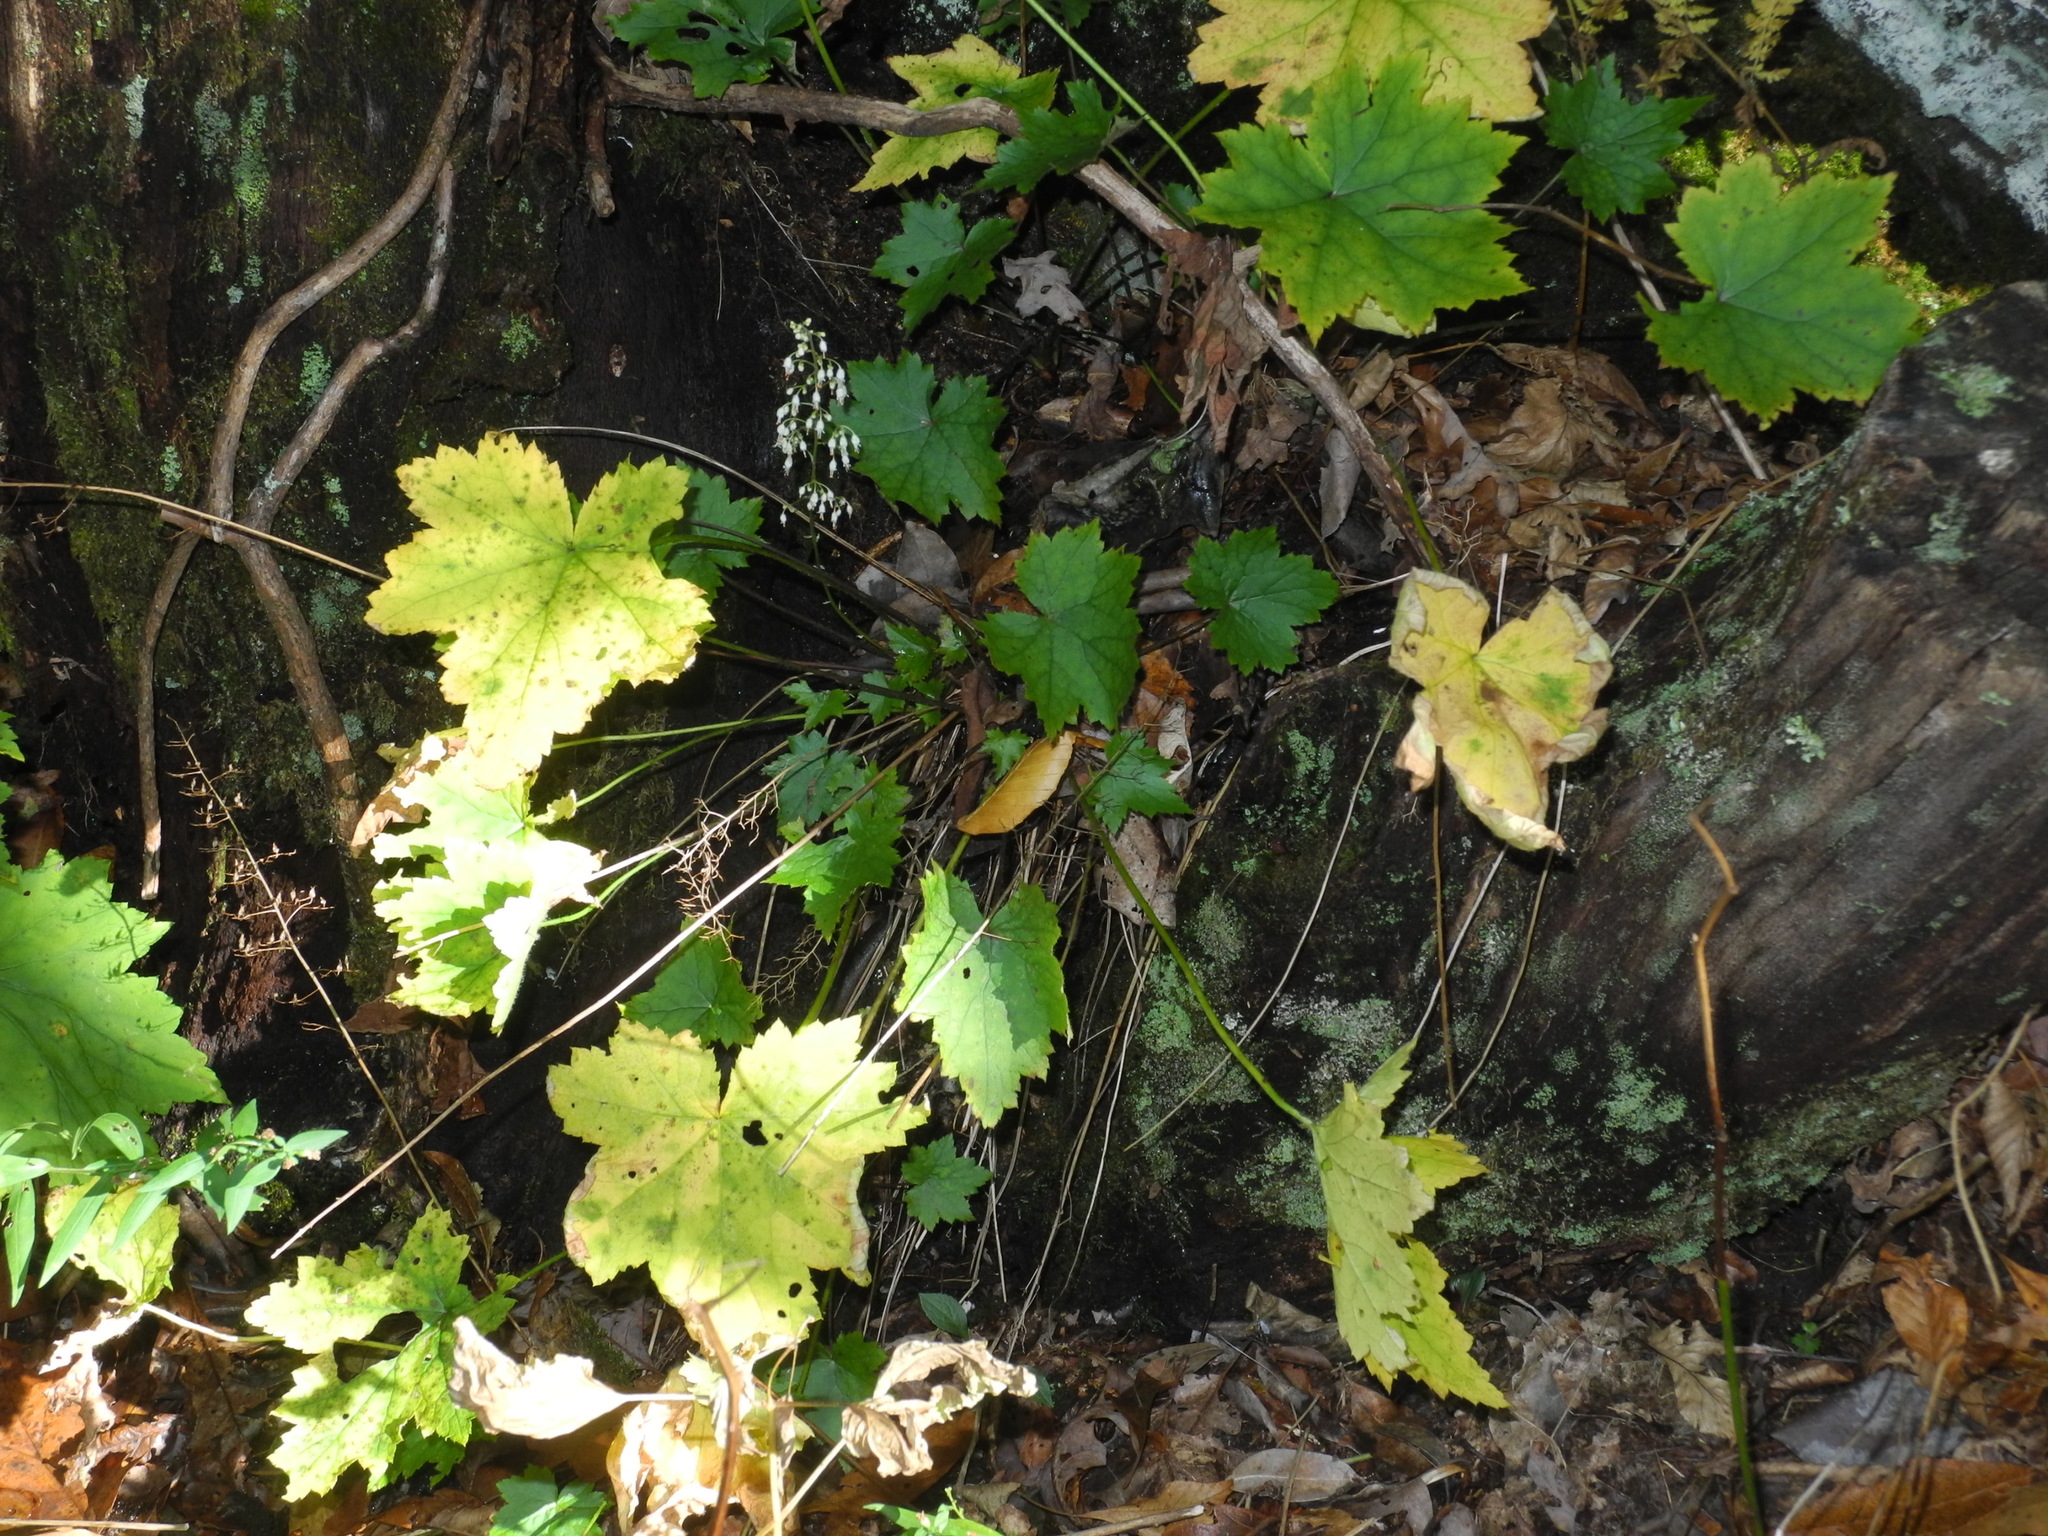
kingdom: Plantae
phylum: Tracheophyta
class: Magnoliopsida
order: Saxifragales
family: Saxifragaceae
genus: Heuchera
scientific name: Heuchera villosa
